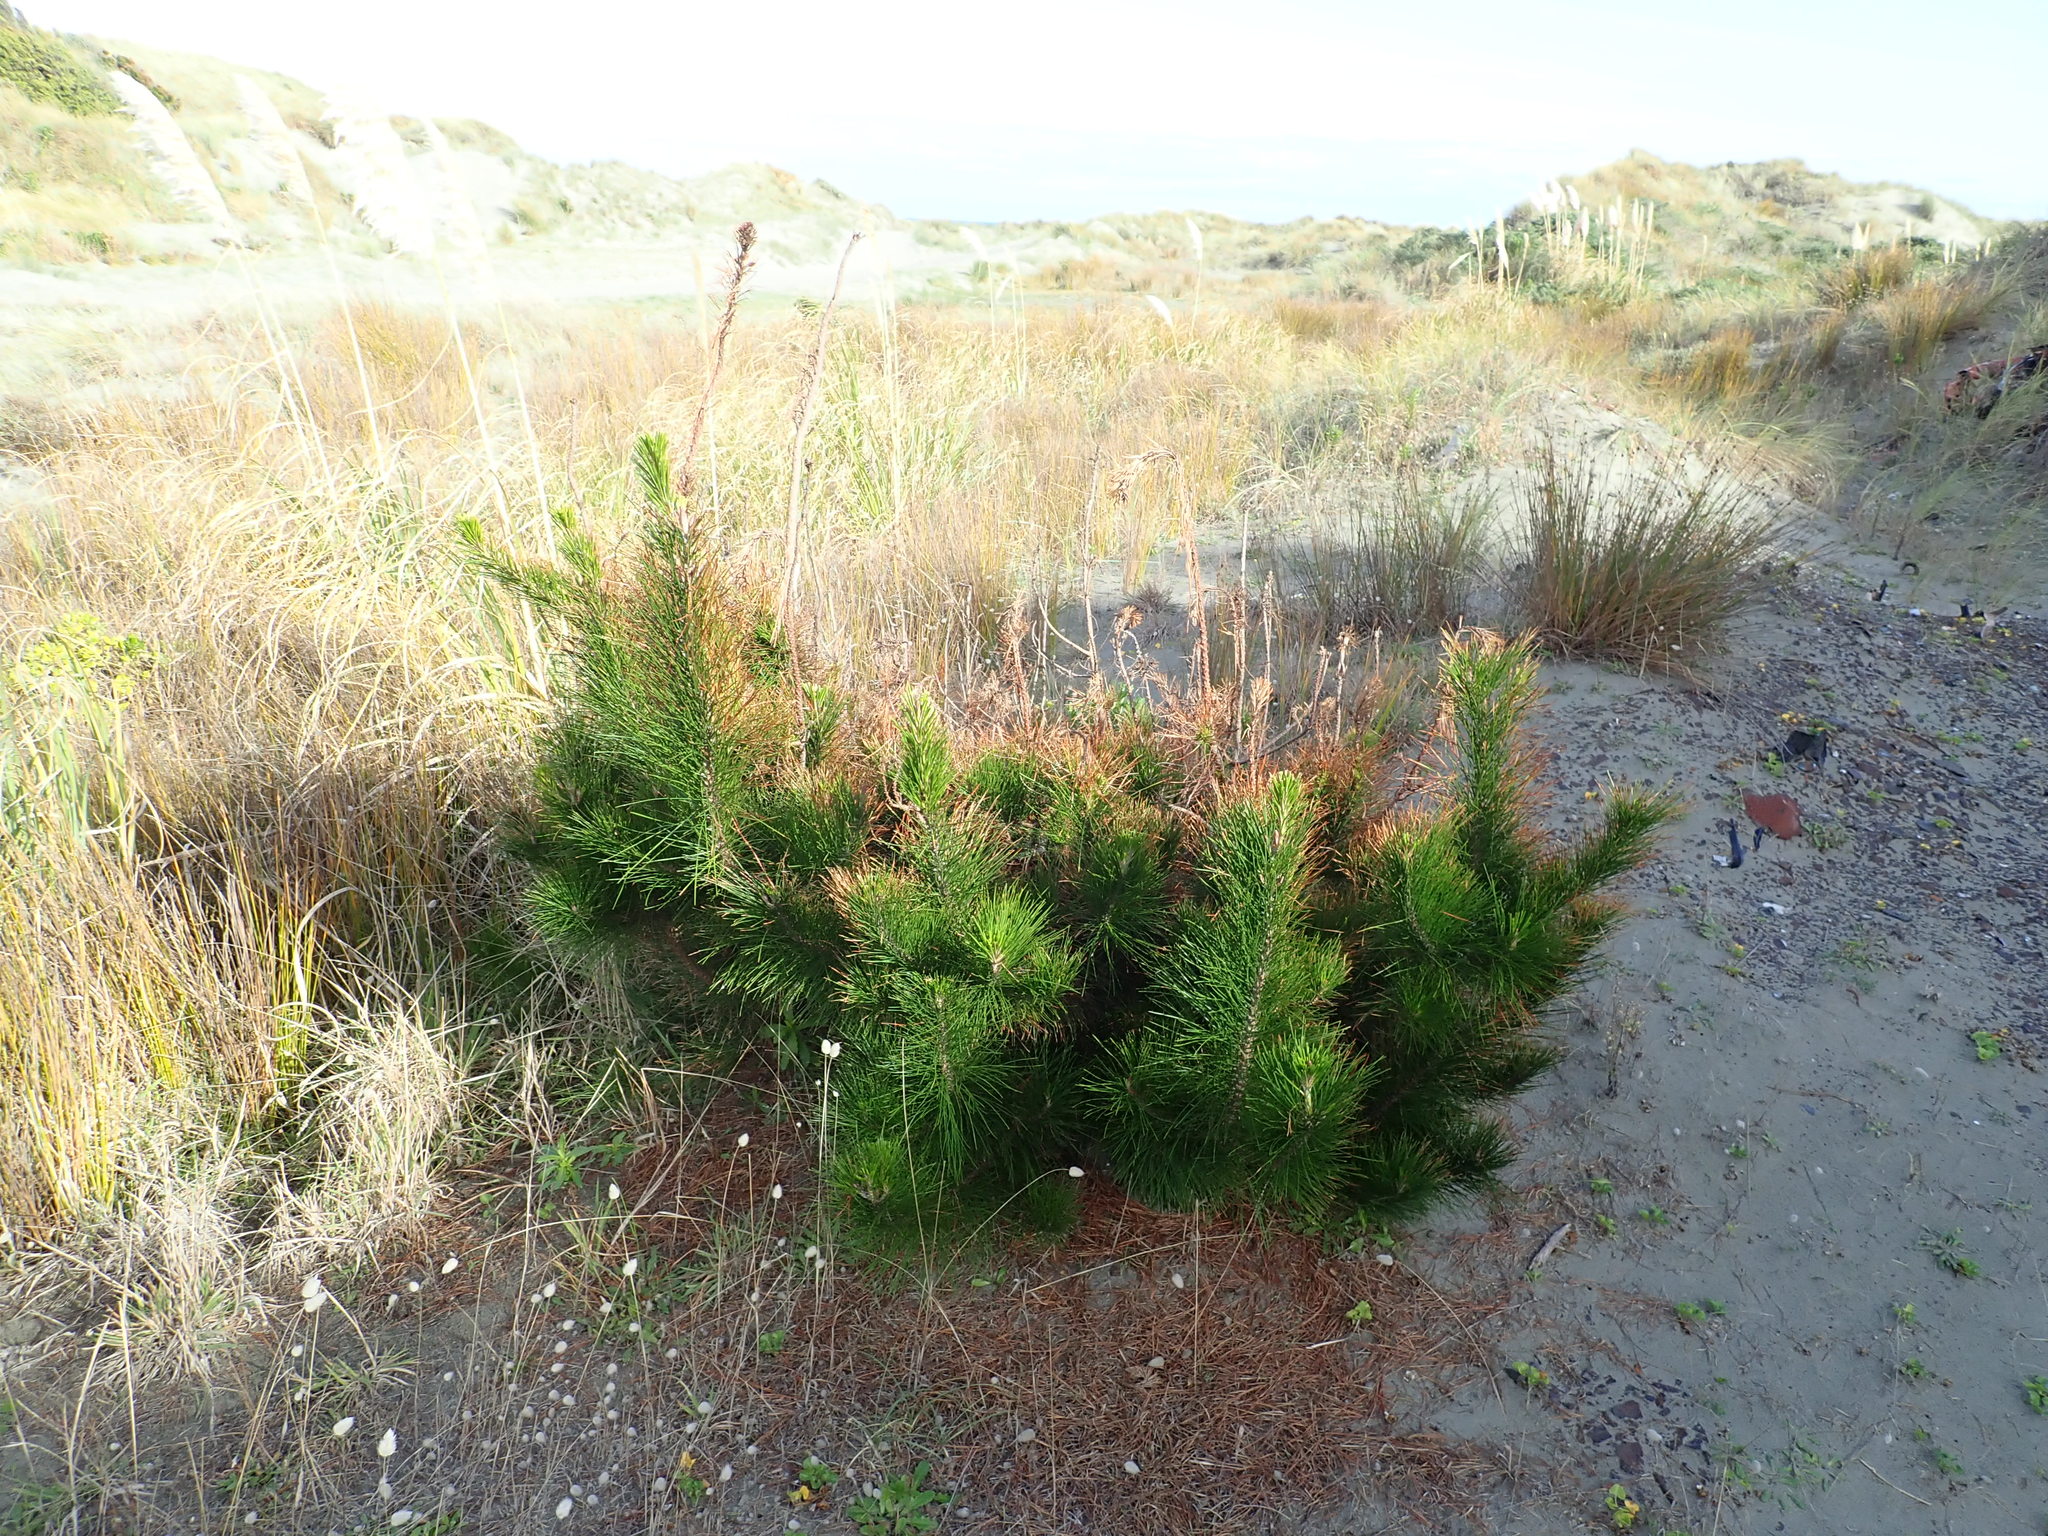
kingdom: Plantae
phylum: Tracheophyta
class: Pinopsida
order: Pinales
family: Pinaceae
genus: Pinus
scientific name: Pinus radiata
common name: Monterey pine
